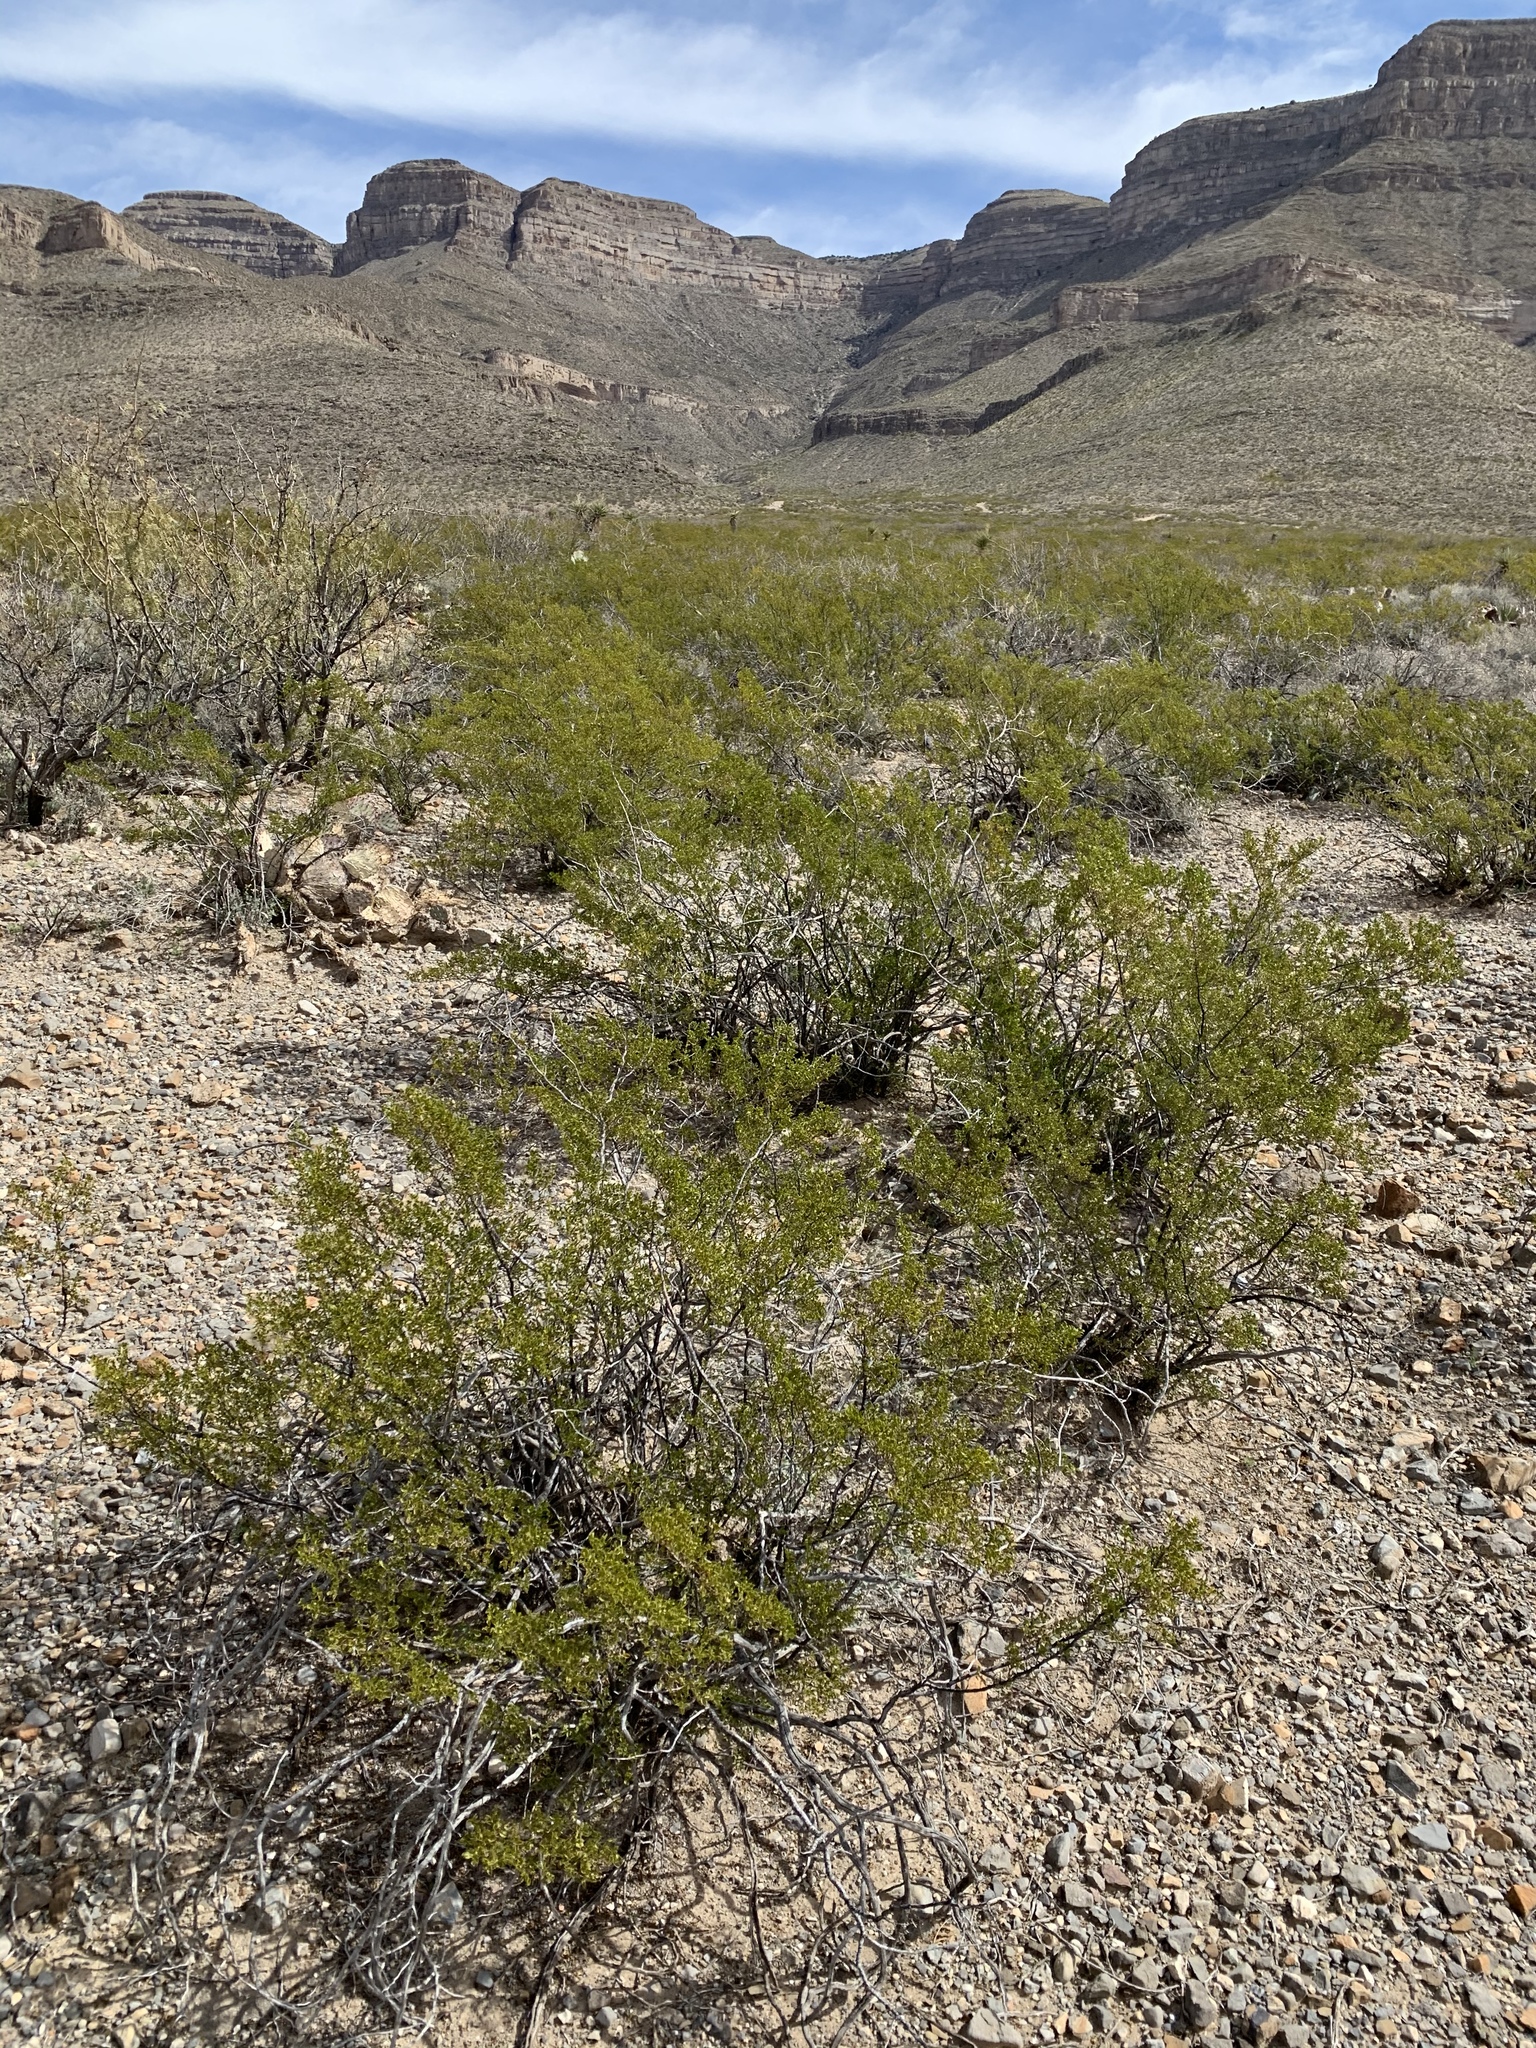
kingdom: Plantae
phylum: Tracheophyta
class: Magnoliopsida
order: Zygophyllales
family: Zygophyllaceae
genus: Larrea
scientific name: Larrea tridentata
